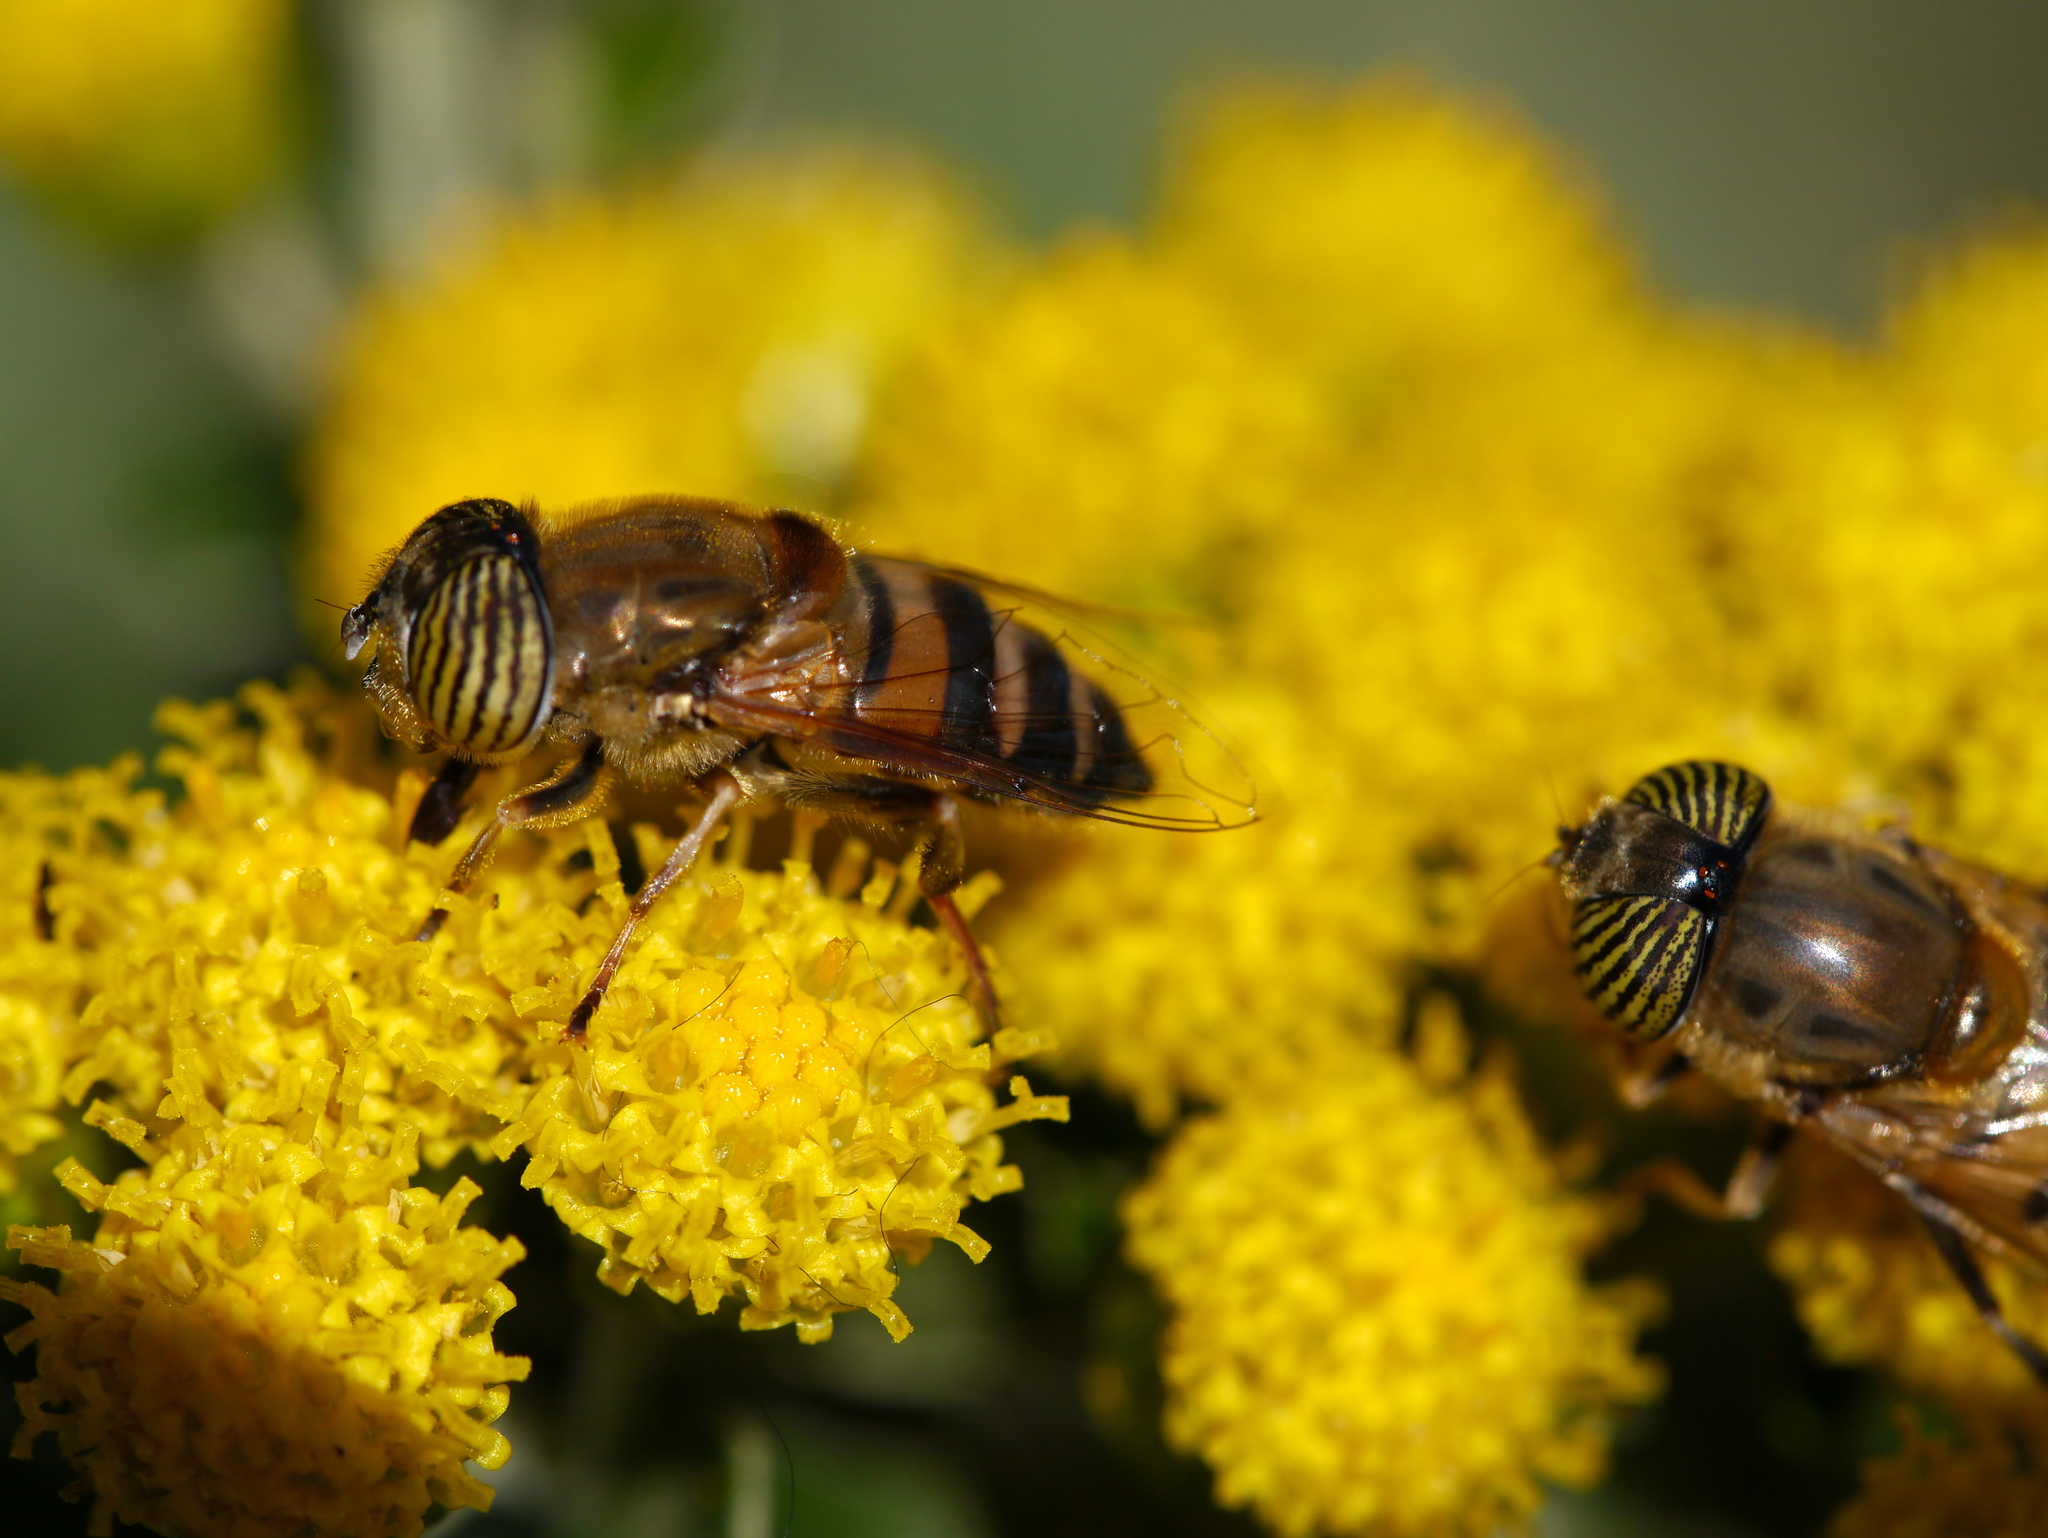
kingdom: Animalia
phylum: Arthropoda
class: Insecta
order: Diptera
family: Syrphidae
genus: Eristalinus
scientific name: Eristalinus taeniops
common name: Syrphid fly
